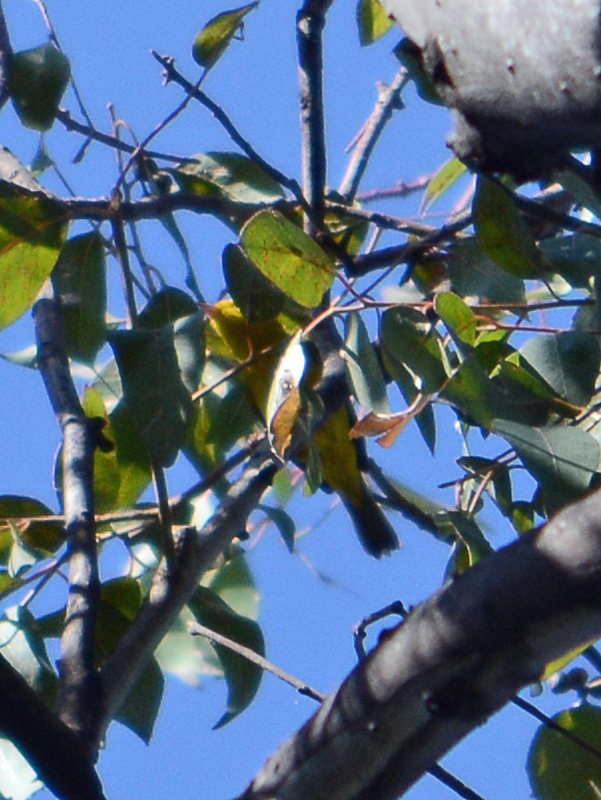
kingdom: Animalia
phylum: Chordata
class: Aves
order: Passeriformes
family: Parulidae
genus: Cardellina
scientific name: Cardellina pusilla
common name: Wilson's warbler
